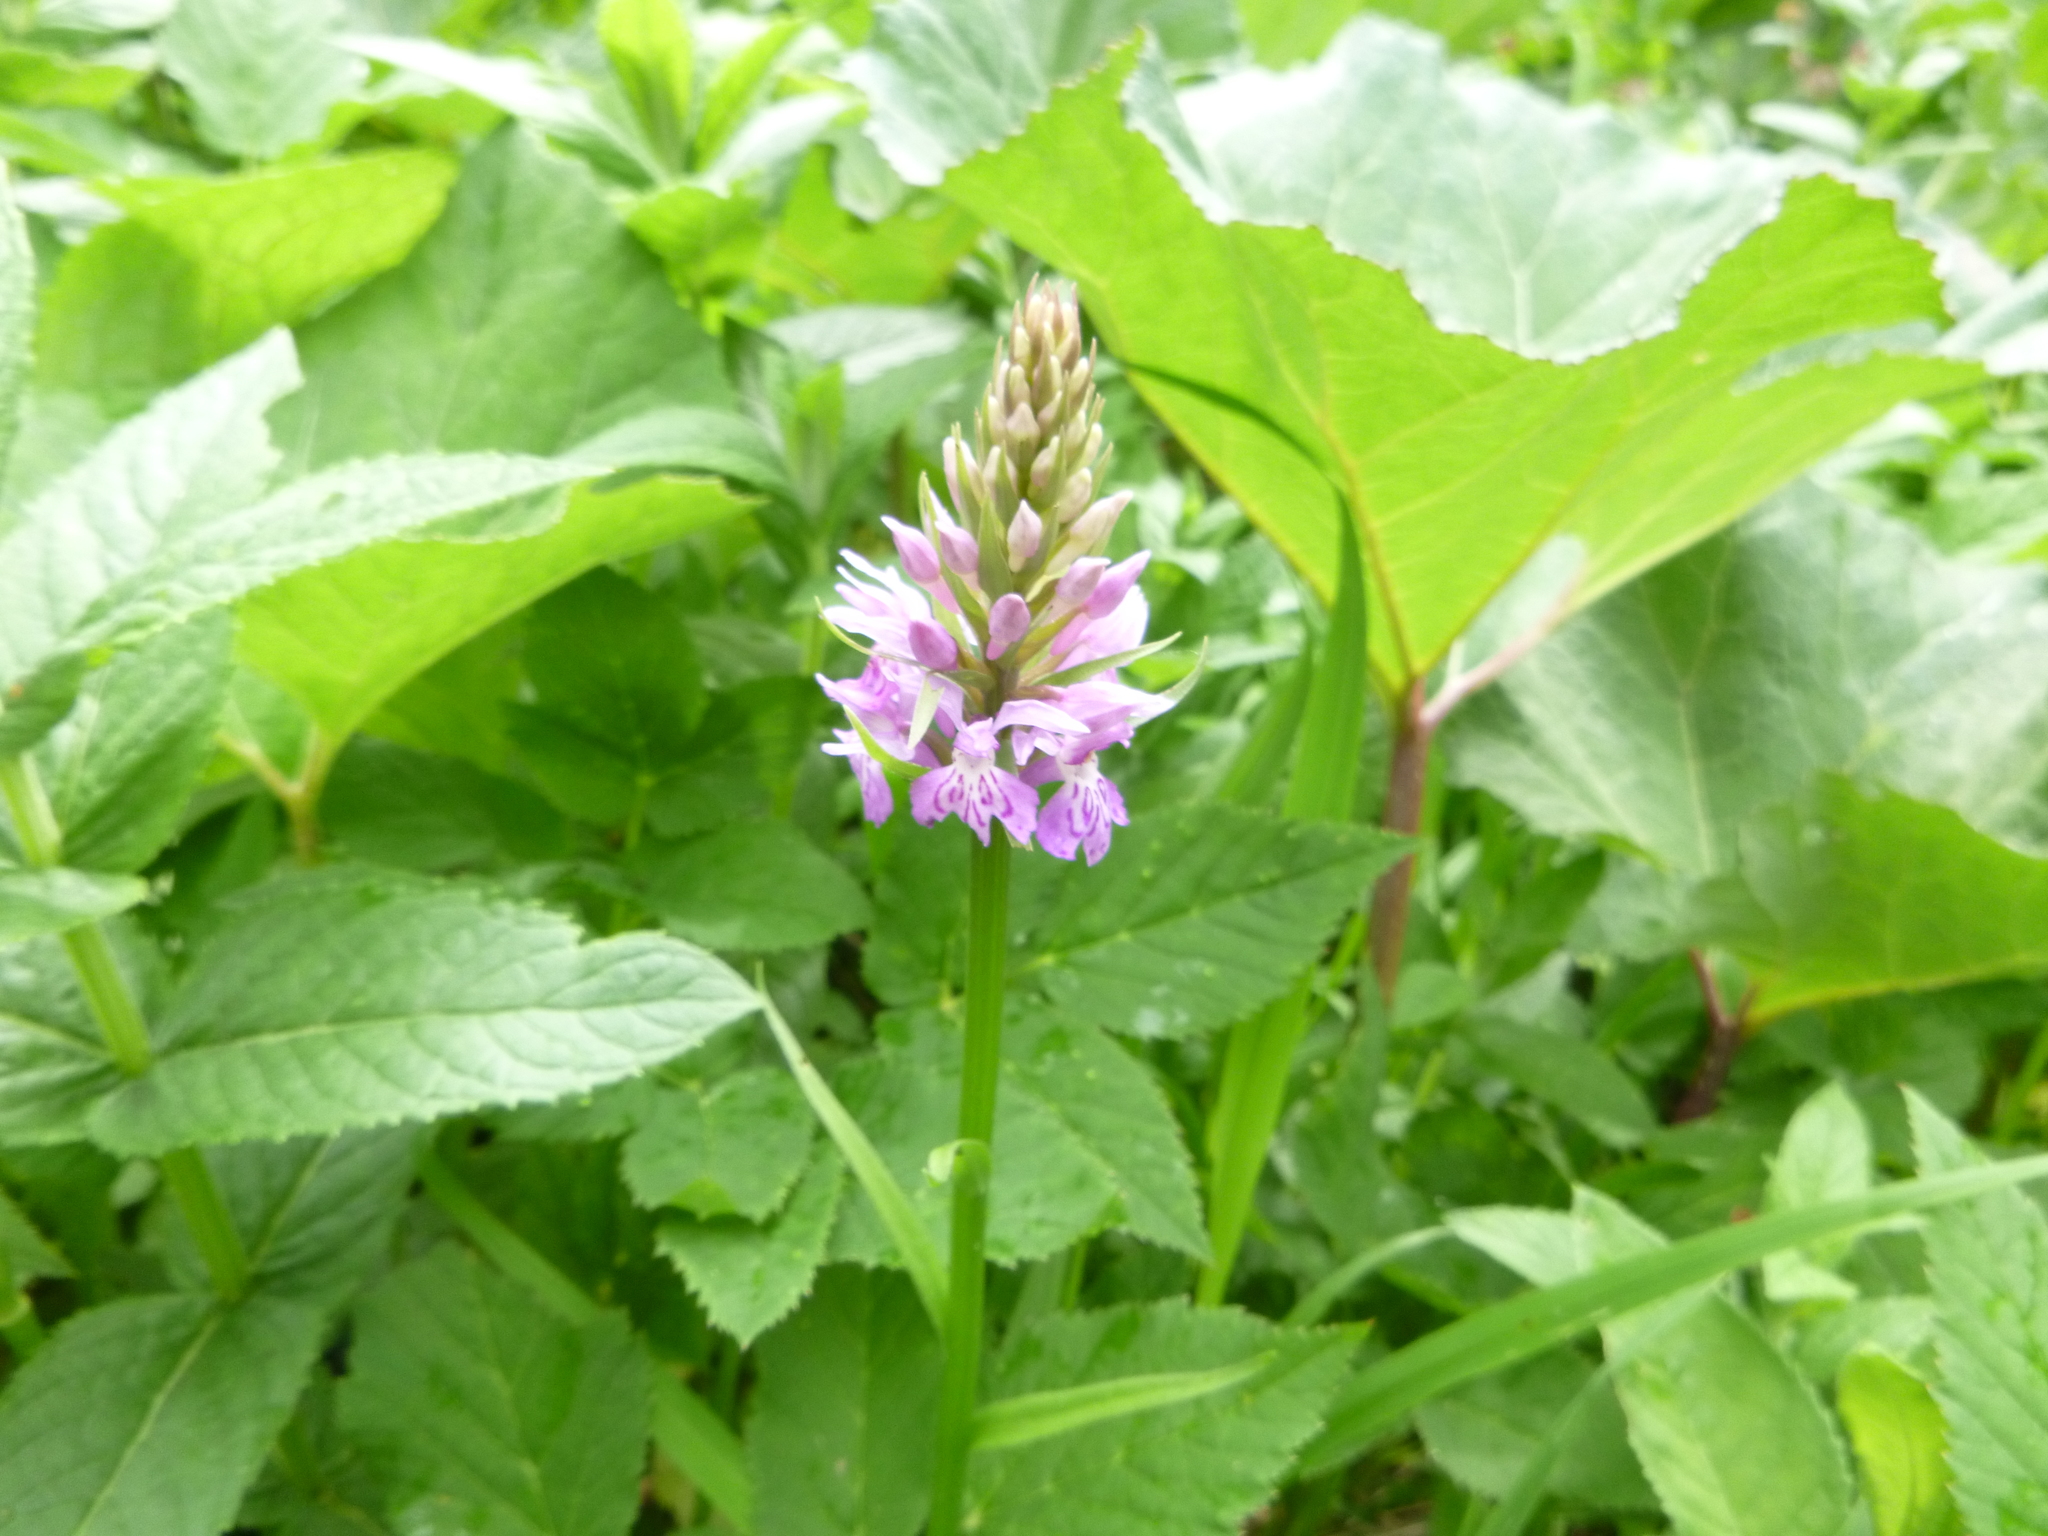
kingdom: Plantae
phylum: Tracheophyta
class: Liliopsida
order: Asparagales
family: Orchidaceae
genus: Dactylorhiza
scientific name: Dactylorhiza maculata
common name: Heath spotted-orchid
